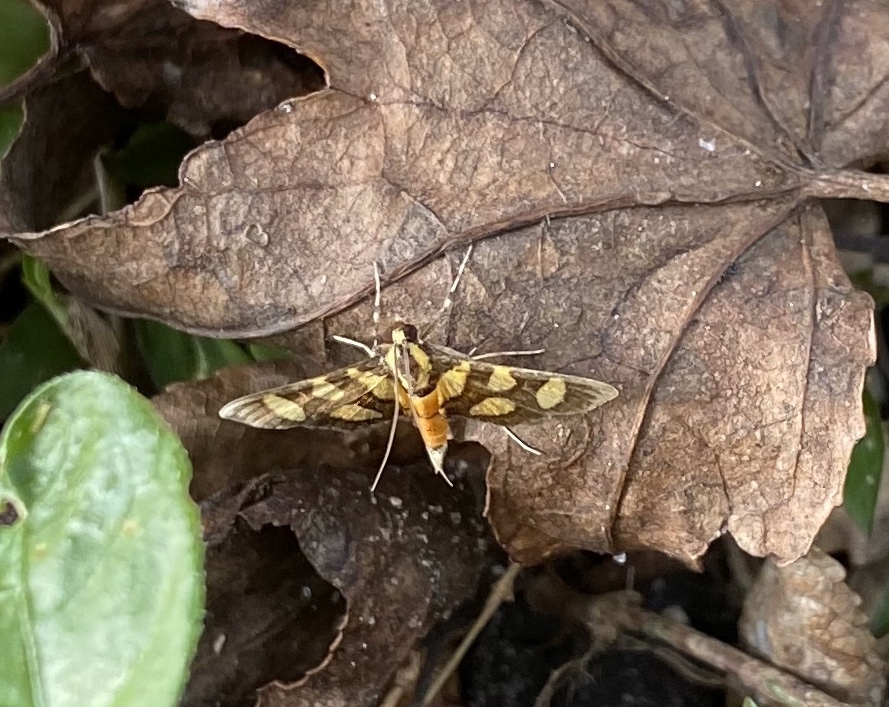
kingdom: Animalia
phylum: Arthropoda
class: Insecta
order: Lepidoptera
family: Crambidae
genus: Syngamia
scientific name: Syngamia florella
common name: Orange-spotted flower moth
